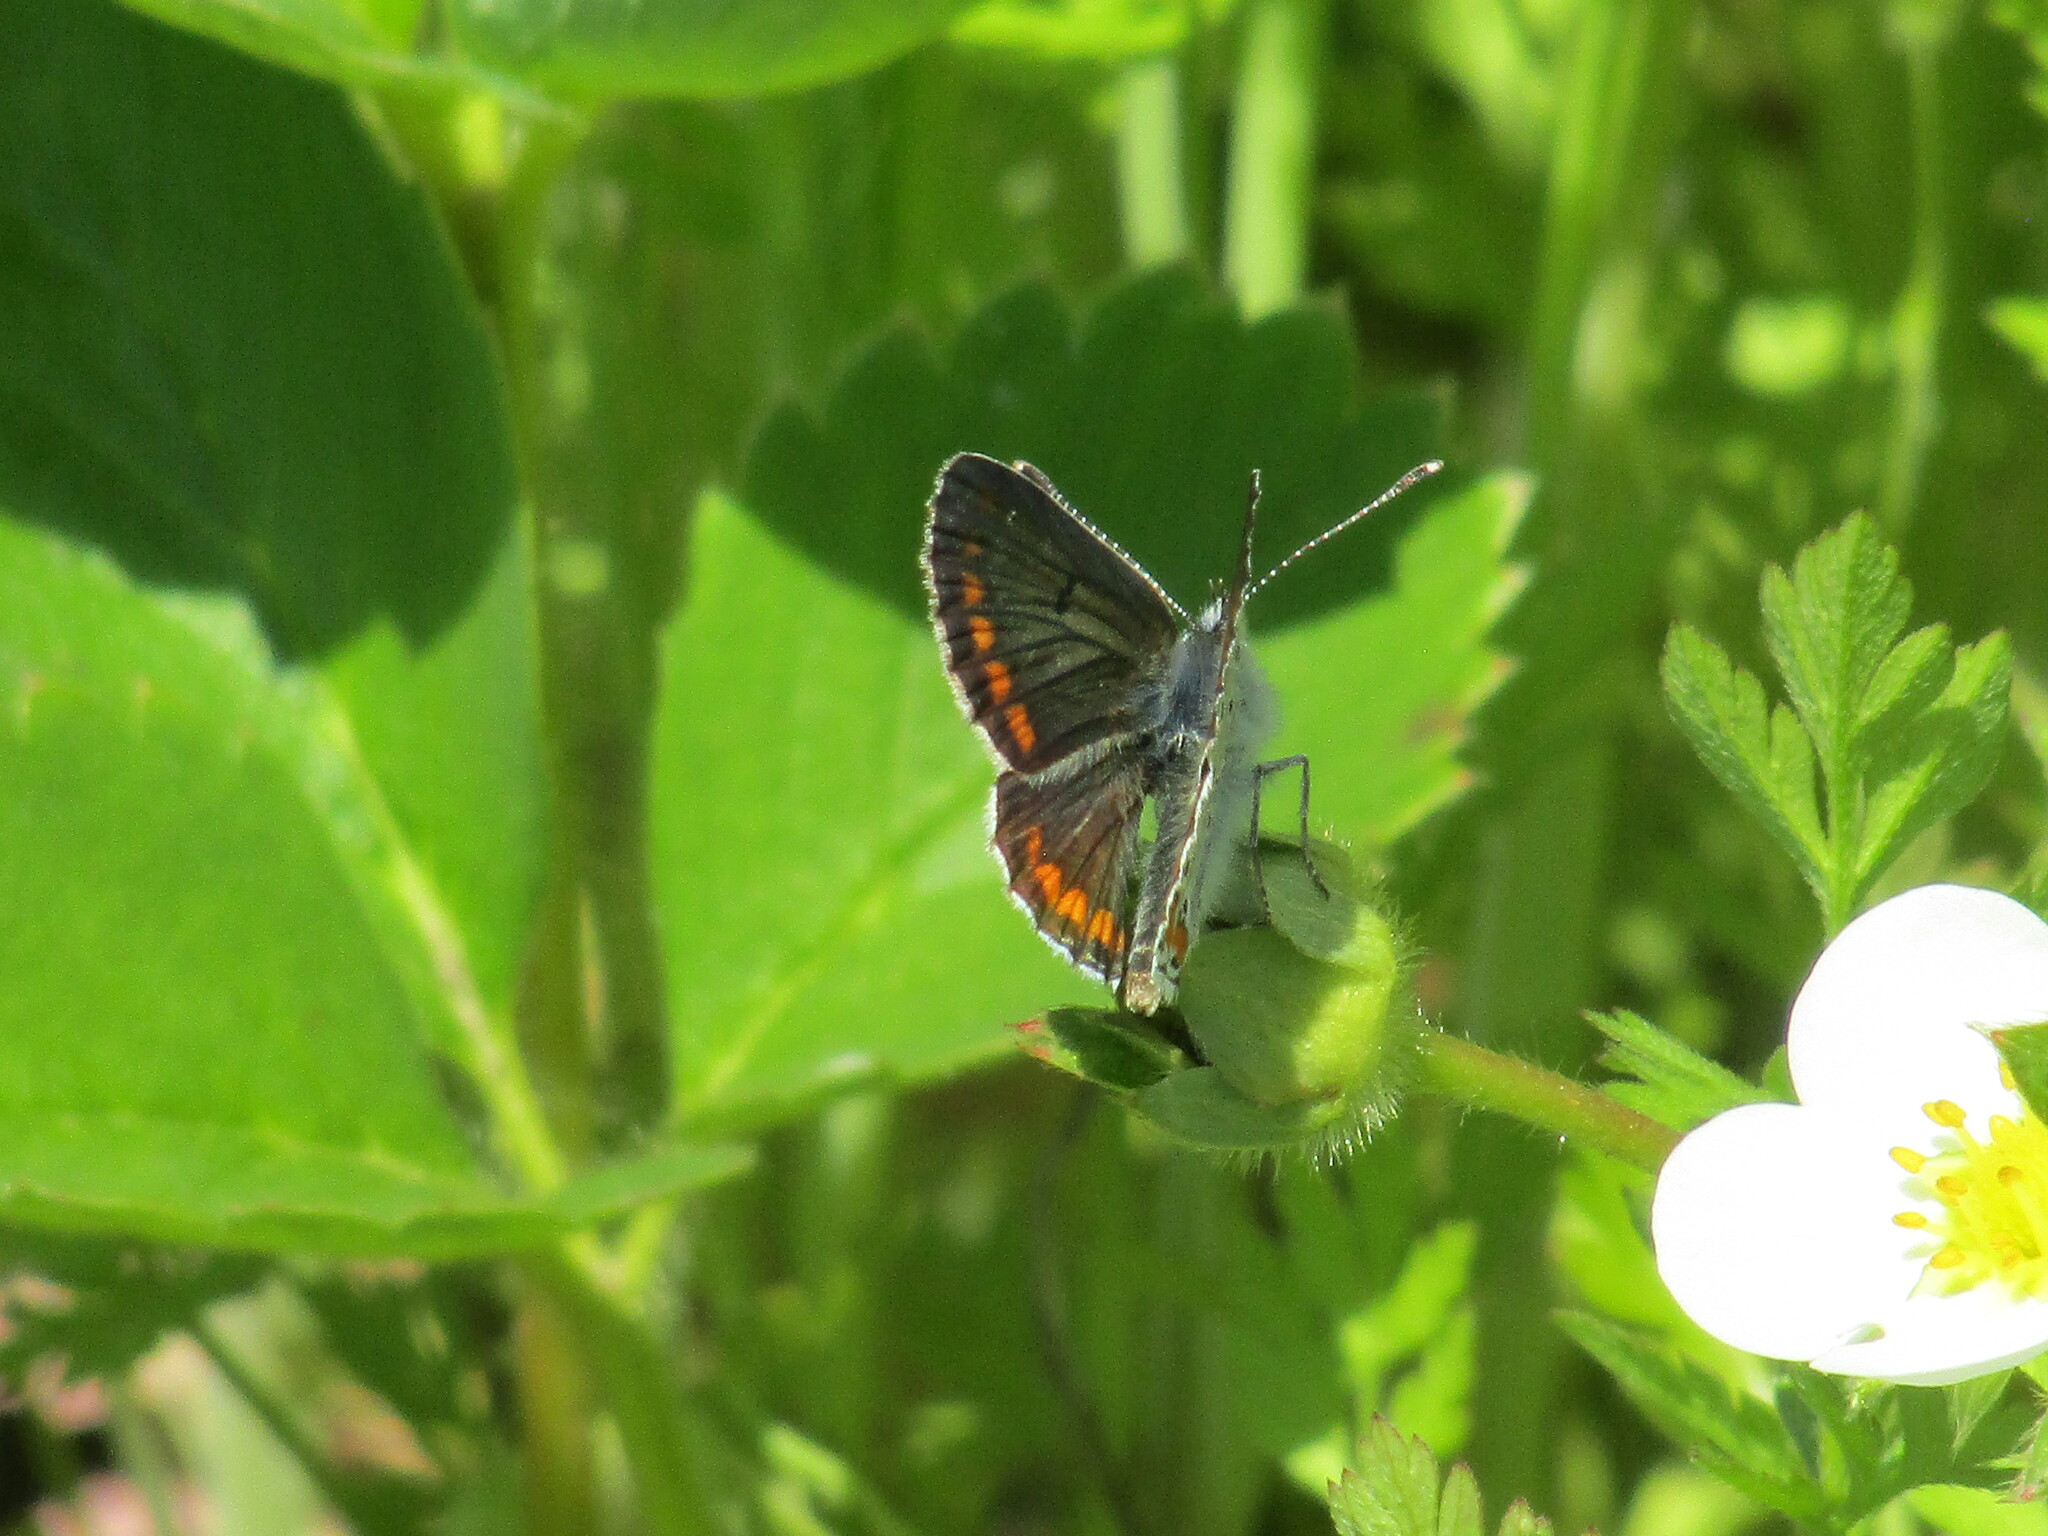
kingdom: Animalia
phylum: Arthropoda
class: Insecta
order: Lepidoptera
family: Lycaenidae
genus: Aricia
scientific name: Aricia agestis
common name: Brown argus
